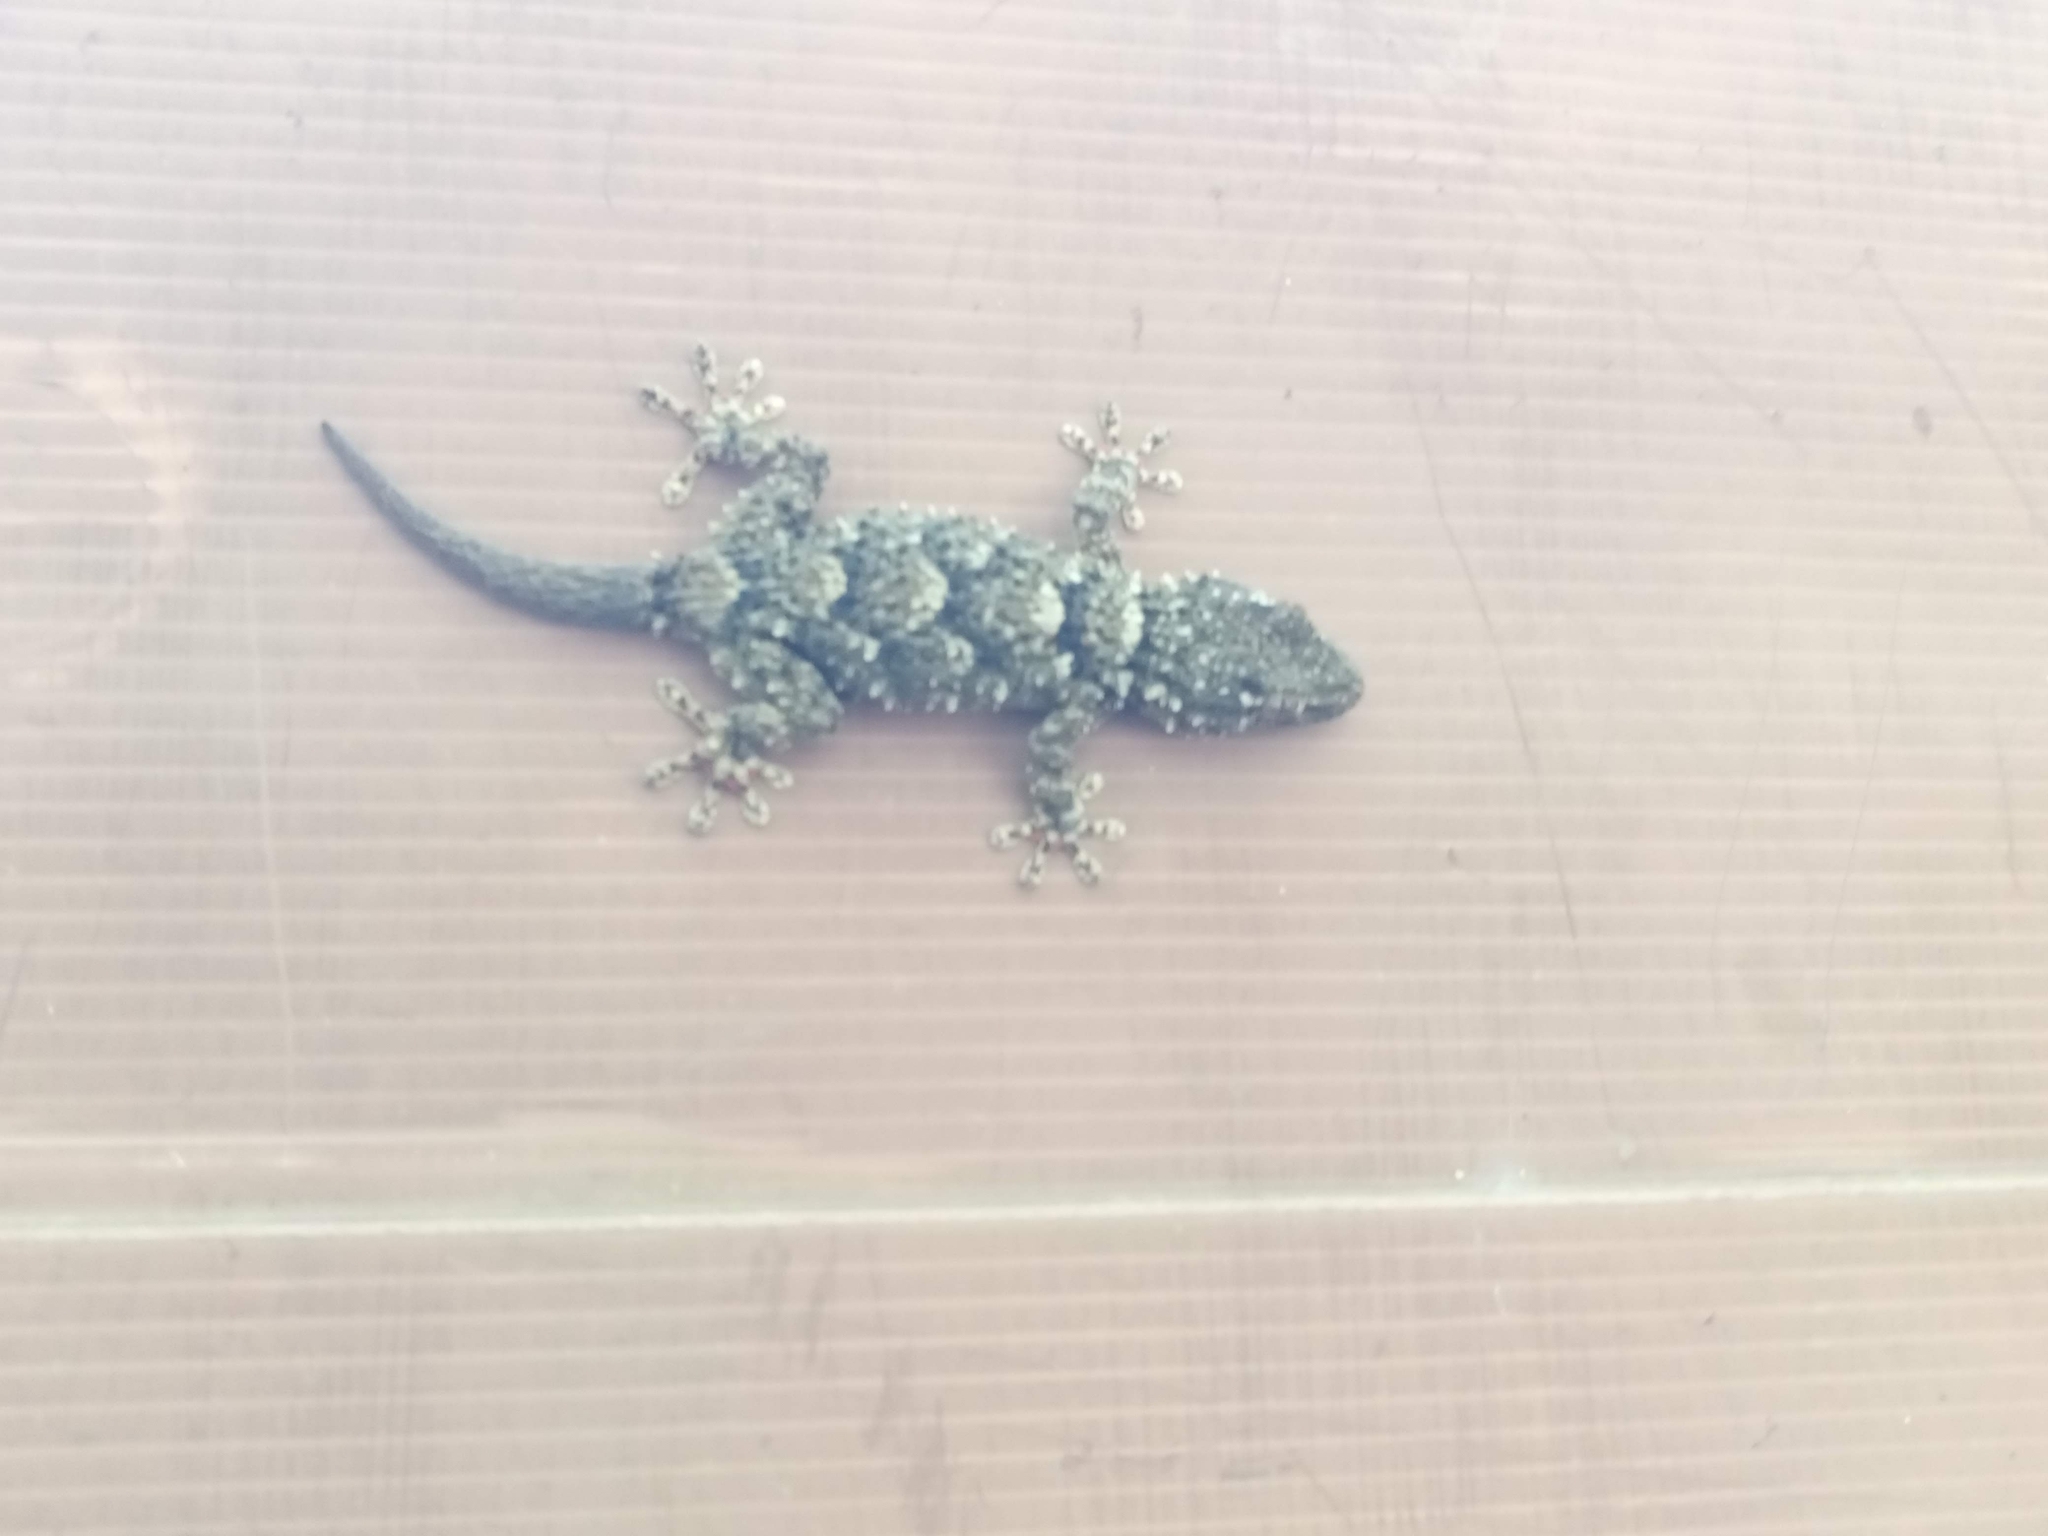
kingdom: Animalia
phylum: Chordata
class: Squamata
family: Phyllodactylidae
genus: Tarentola
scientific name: Tarentola mauritanica
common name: Moorish gecko
